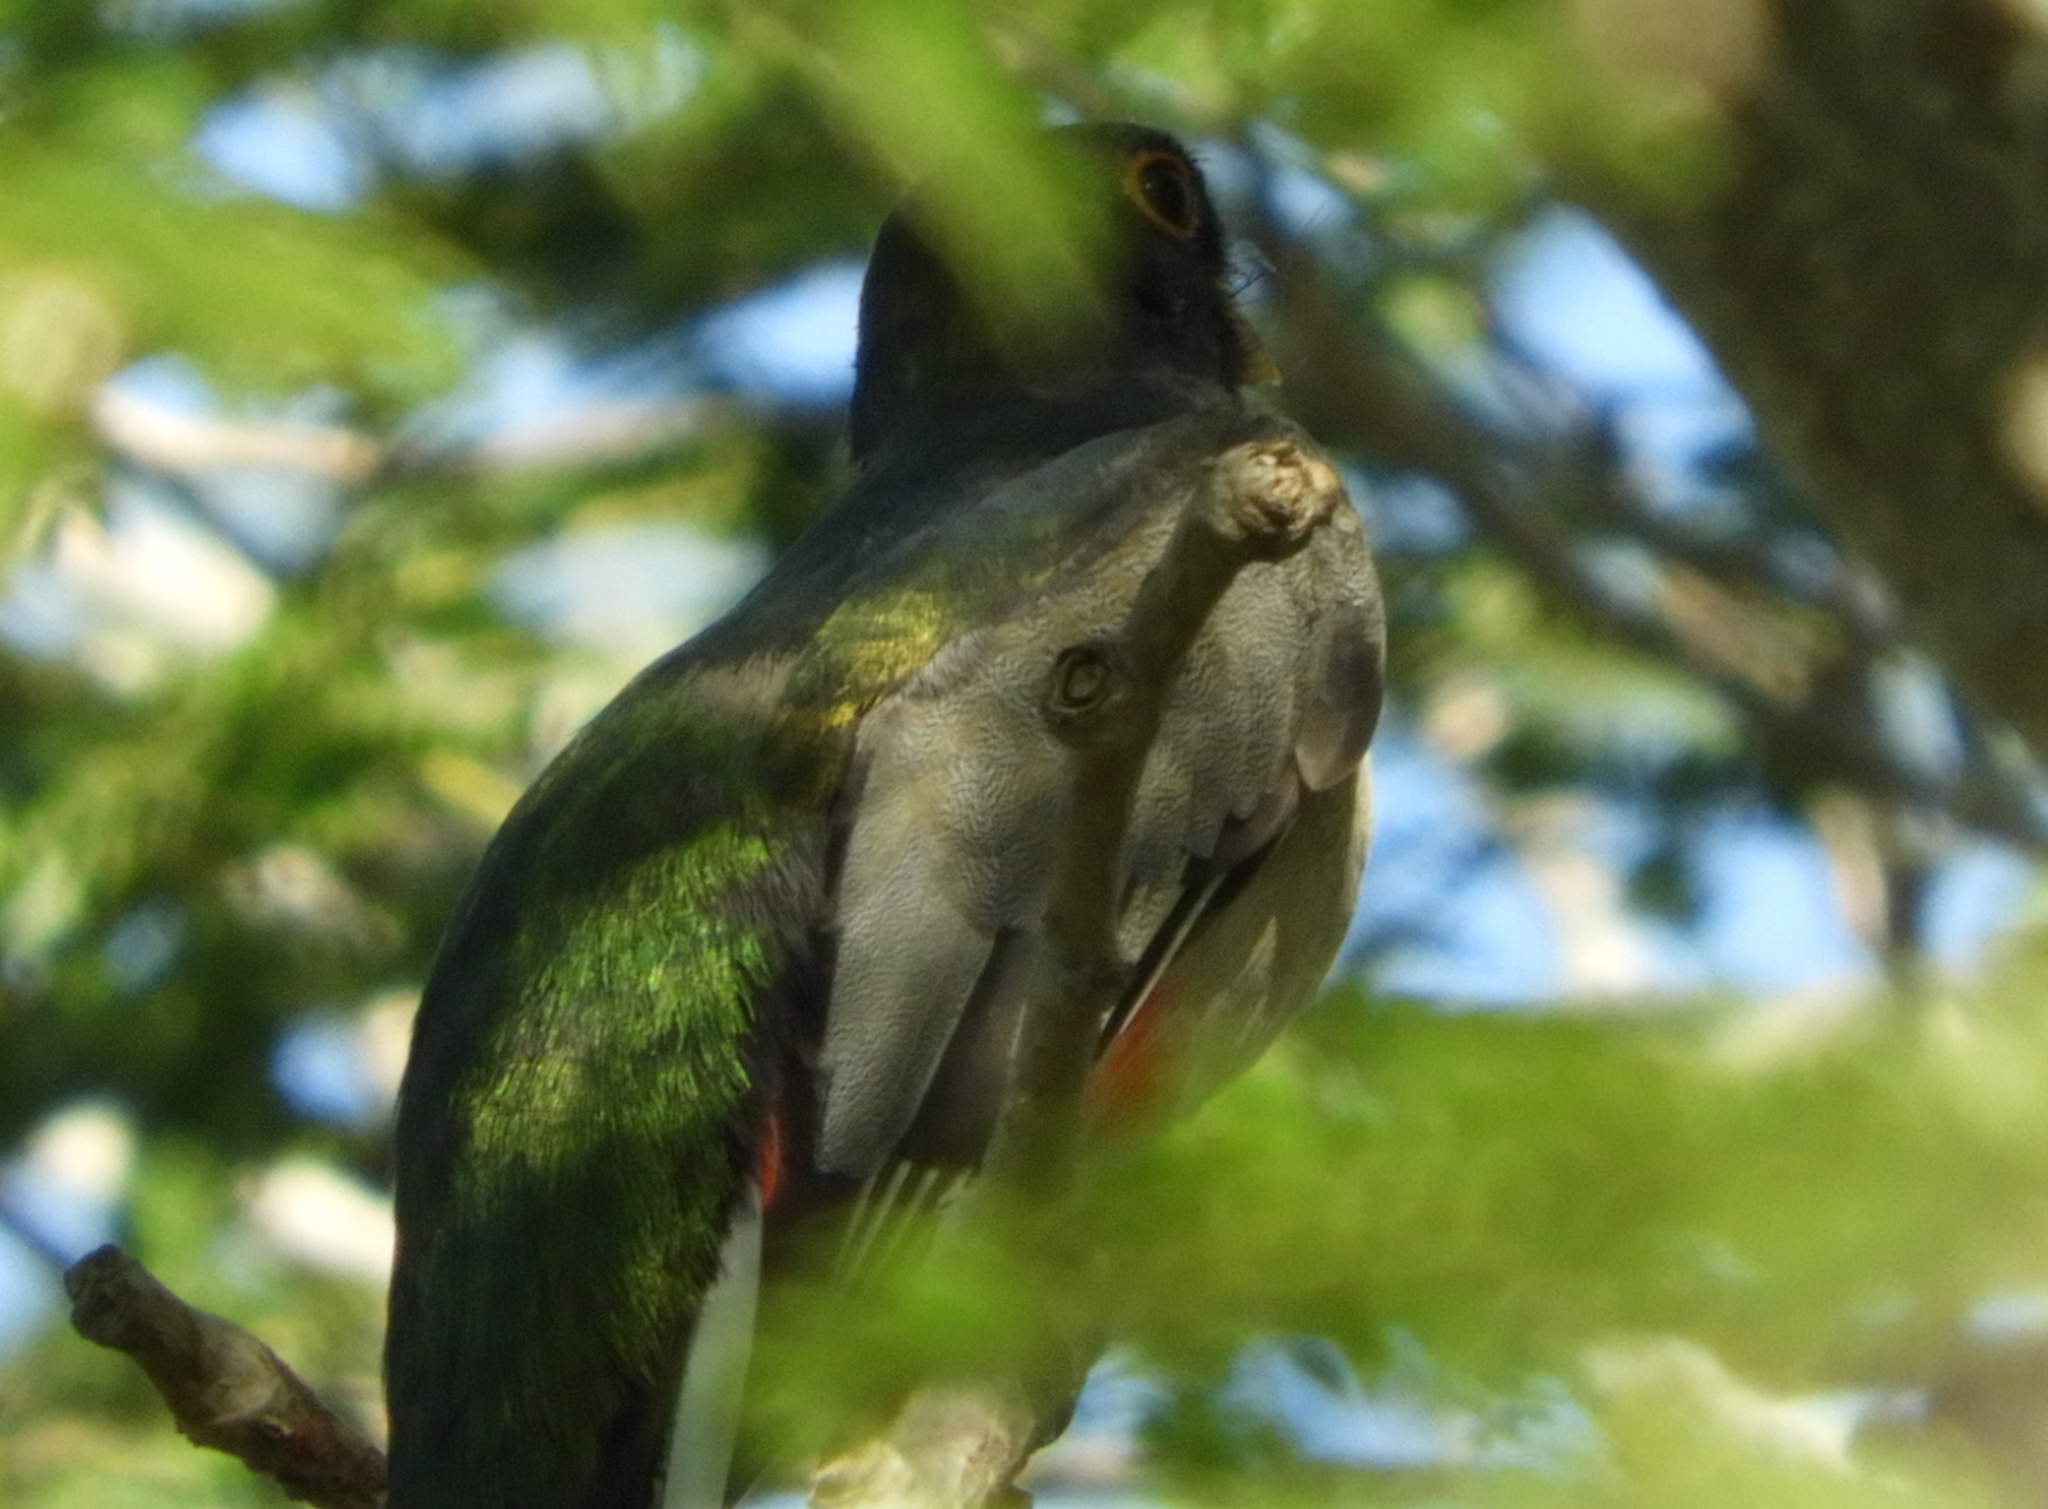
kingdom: Animalia
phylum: Chordata
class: Aves
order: Trogoniformes
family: Trogonidae
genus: Trogon
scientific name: Trogon elegans
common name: Elegant trogon
